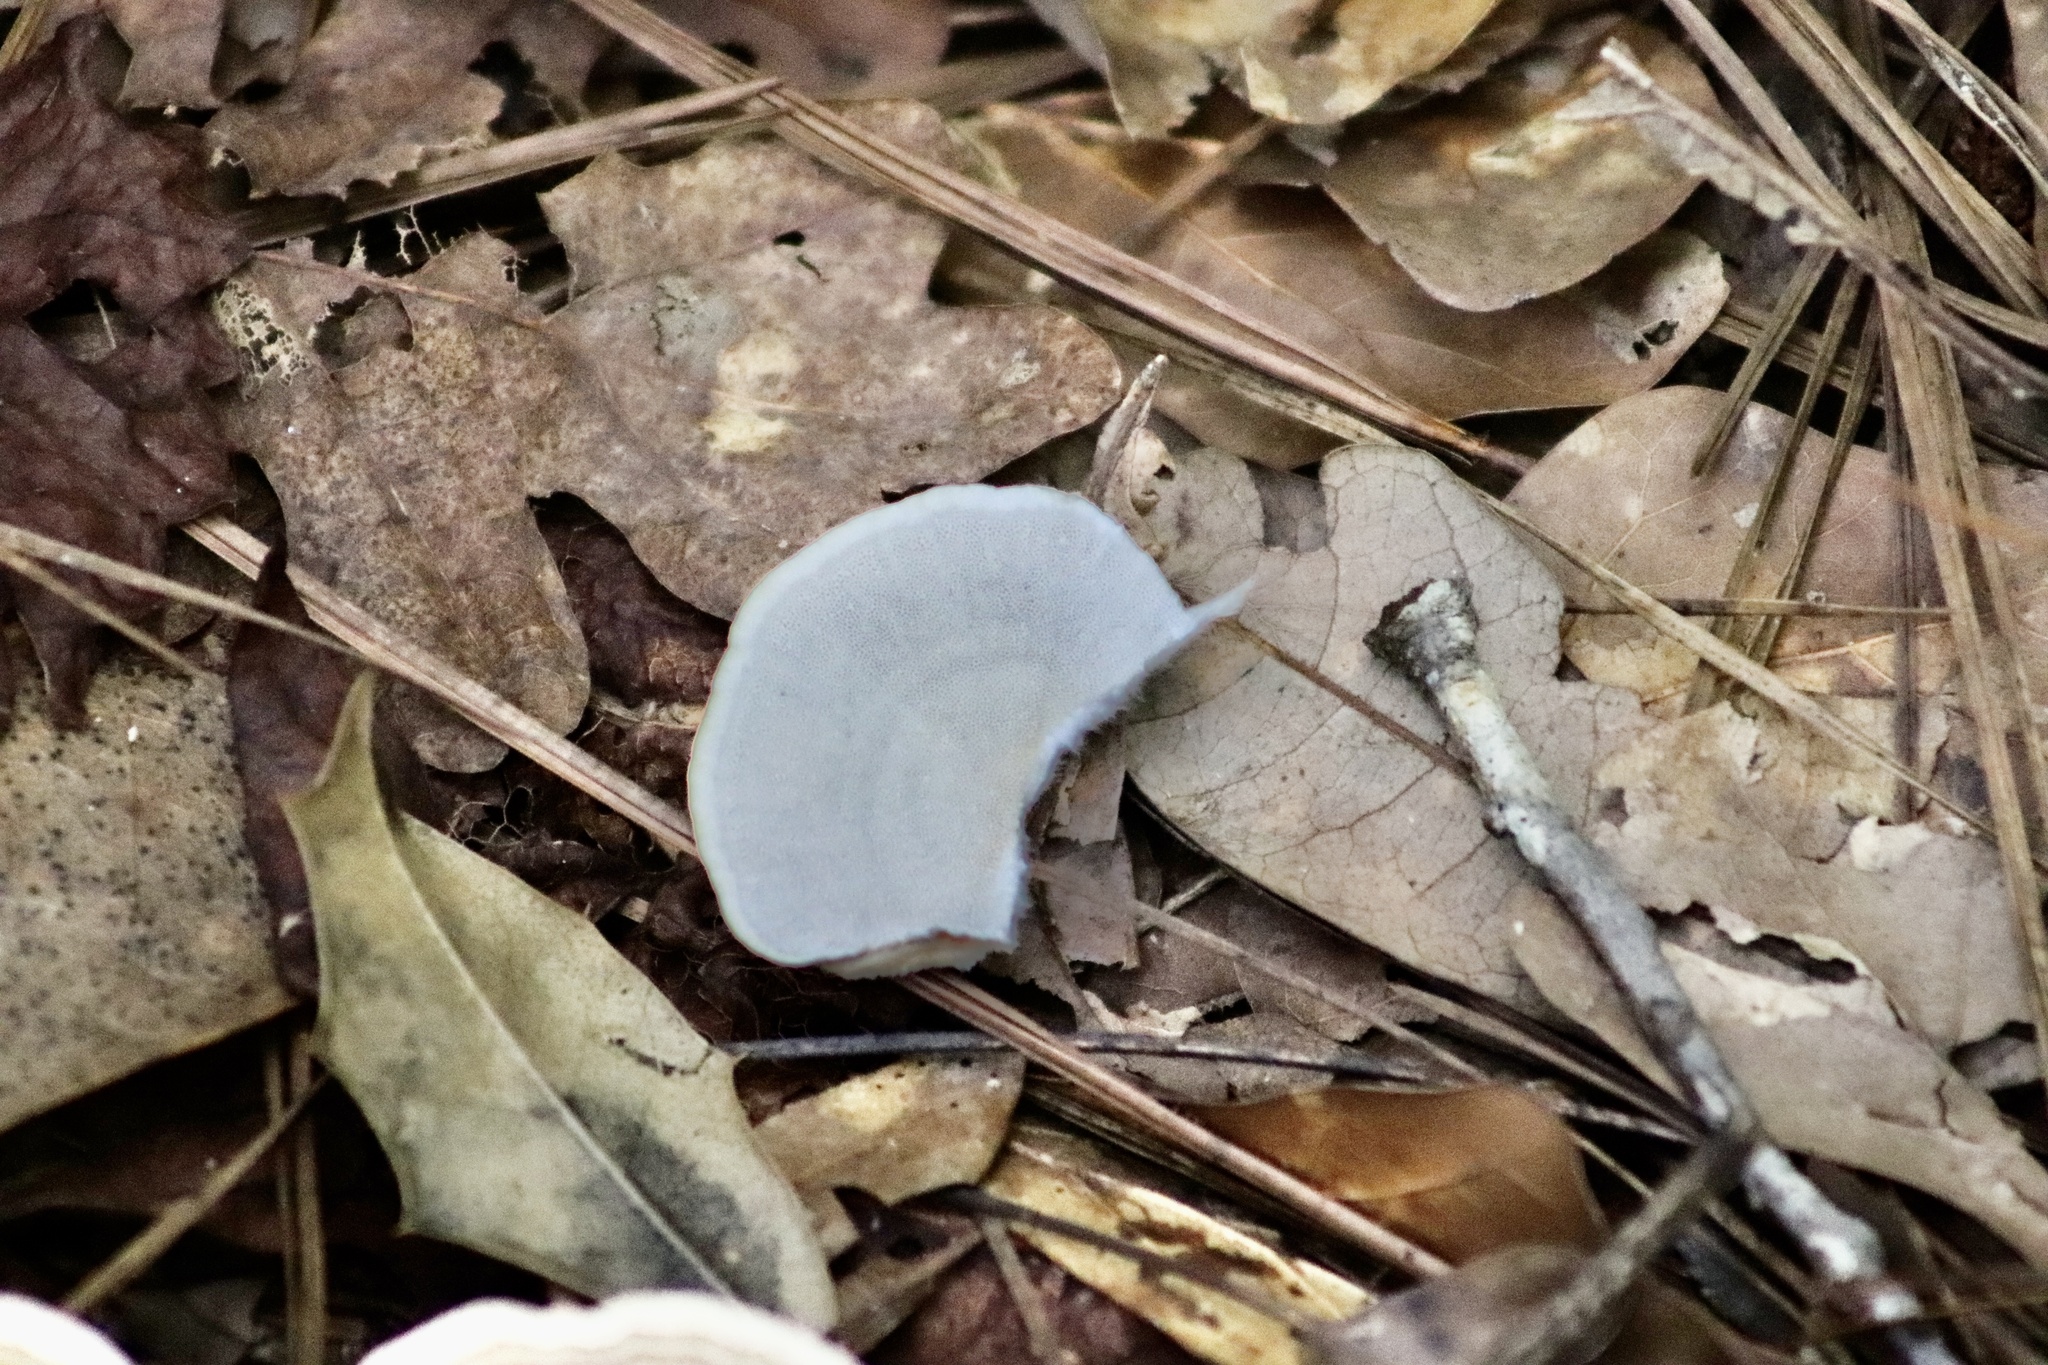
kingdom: Fungi
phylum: Basidiomycota
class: Agaricomycetes
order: Polyporales
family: Polyporaceae
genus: Trametes
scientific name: Trametes versicolor
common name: Turkeytail
